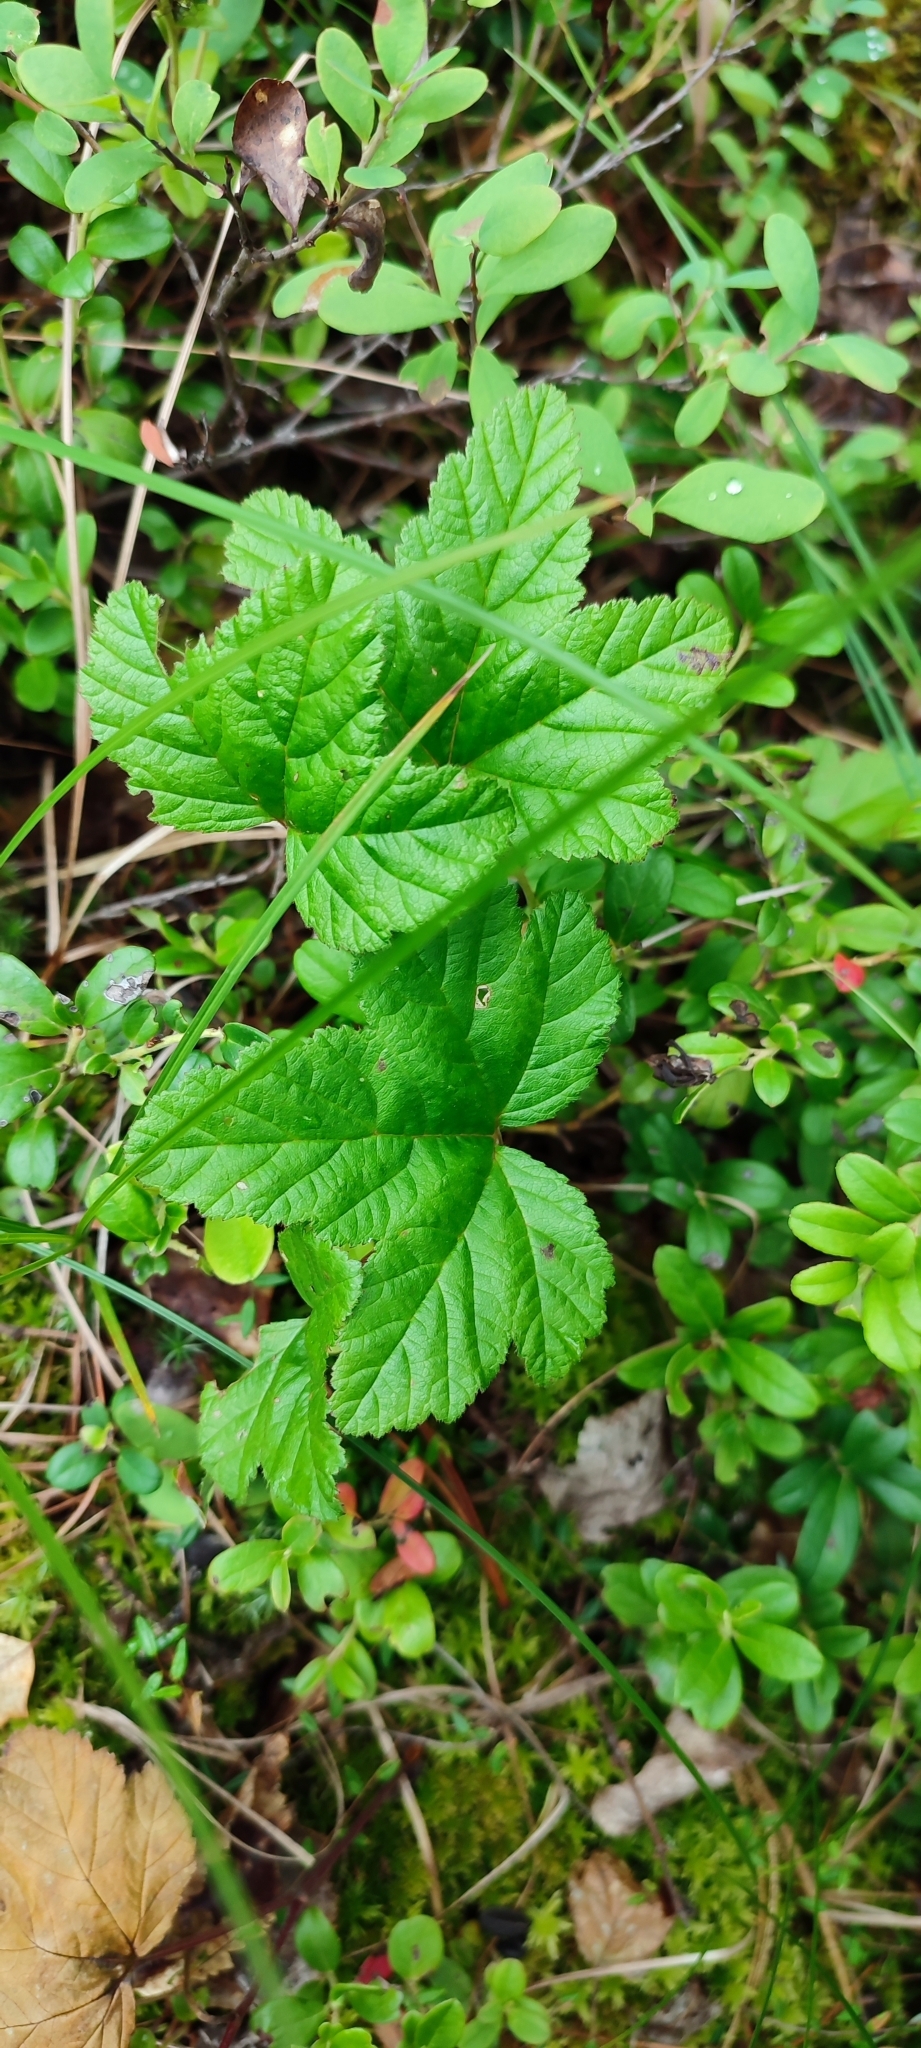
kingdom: Plantae
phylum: Tracheophyta
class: Magnoliopsida
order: Rosales
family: Rosaceae
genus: Rubus
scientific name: Rubus chamaemorus
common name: Cloudberry
